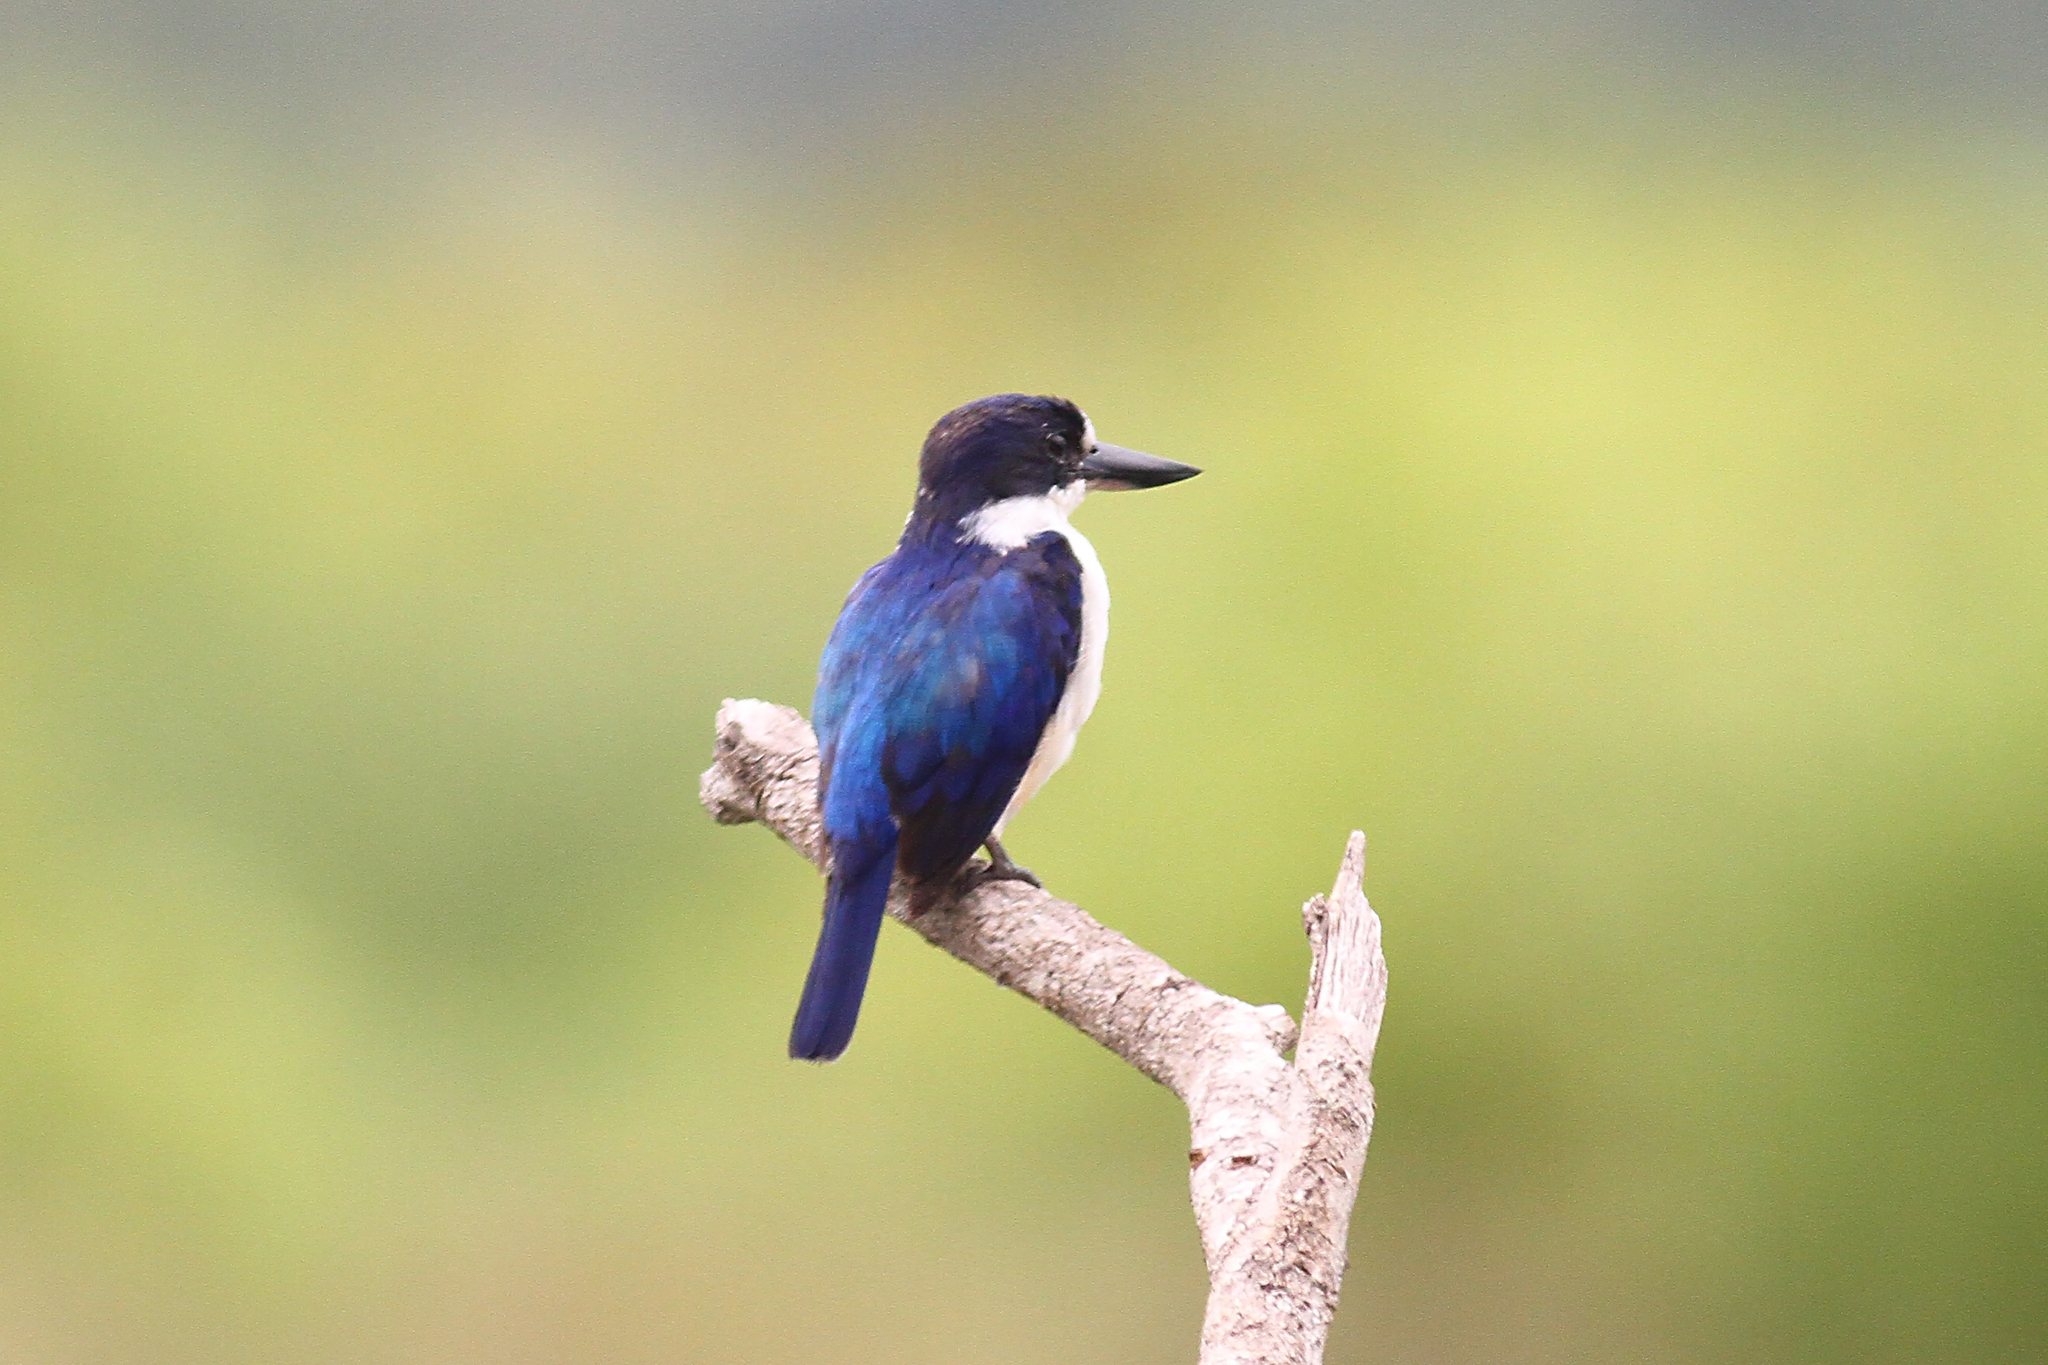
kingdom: Animalia
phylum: Chordata
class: Aves
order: Coraciiformes
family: Alcedinidae
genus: Todiramphus
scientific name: Todiramphus macleayii
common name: Forest kingfisher
